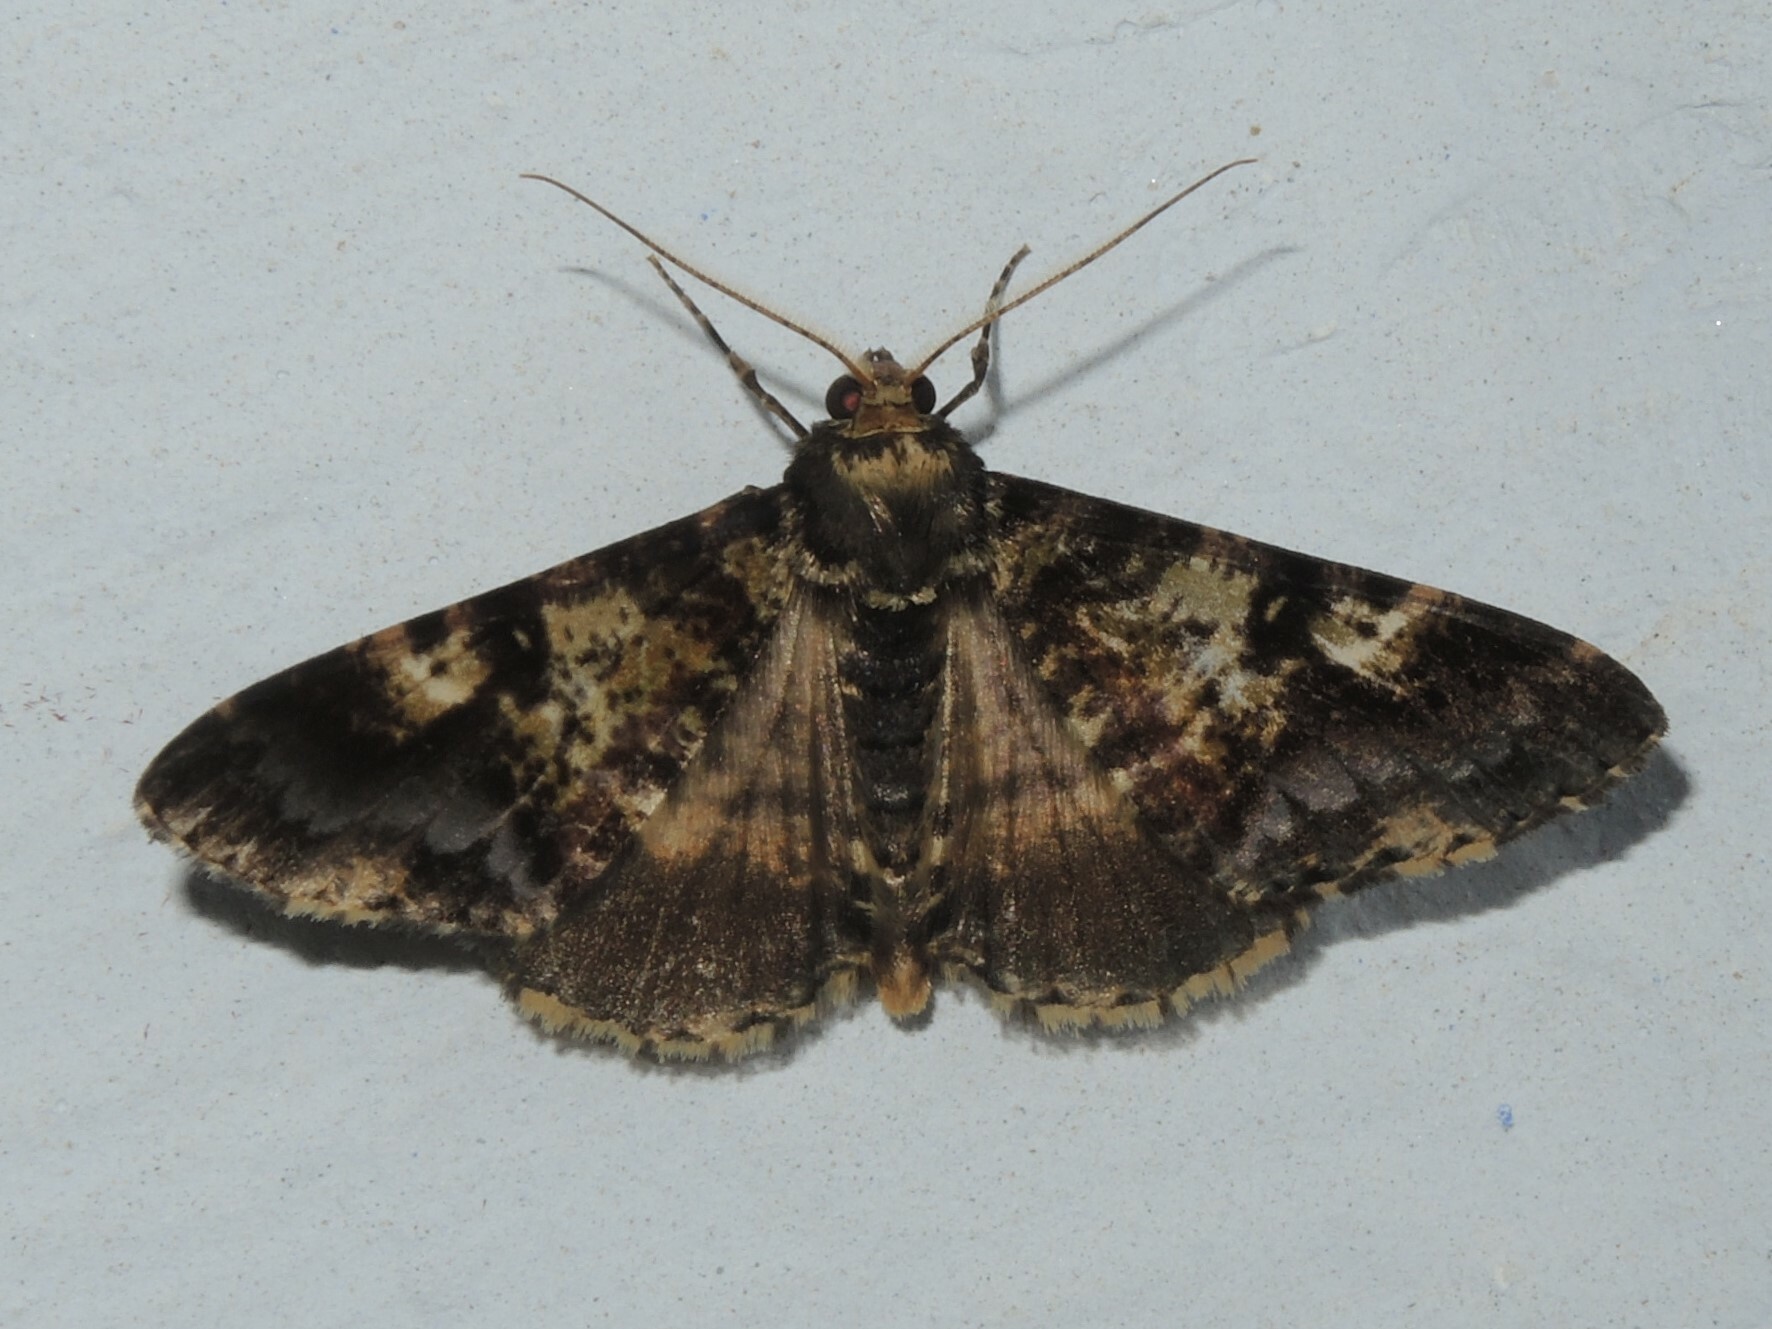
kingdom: Animalia
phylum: Arthropoda
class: Insecta
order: Lepidoptera
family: Geometridae
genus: Gasterocome
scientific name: Gasterocome pannosaria
